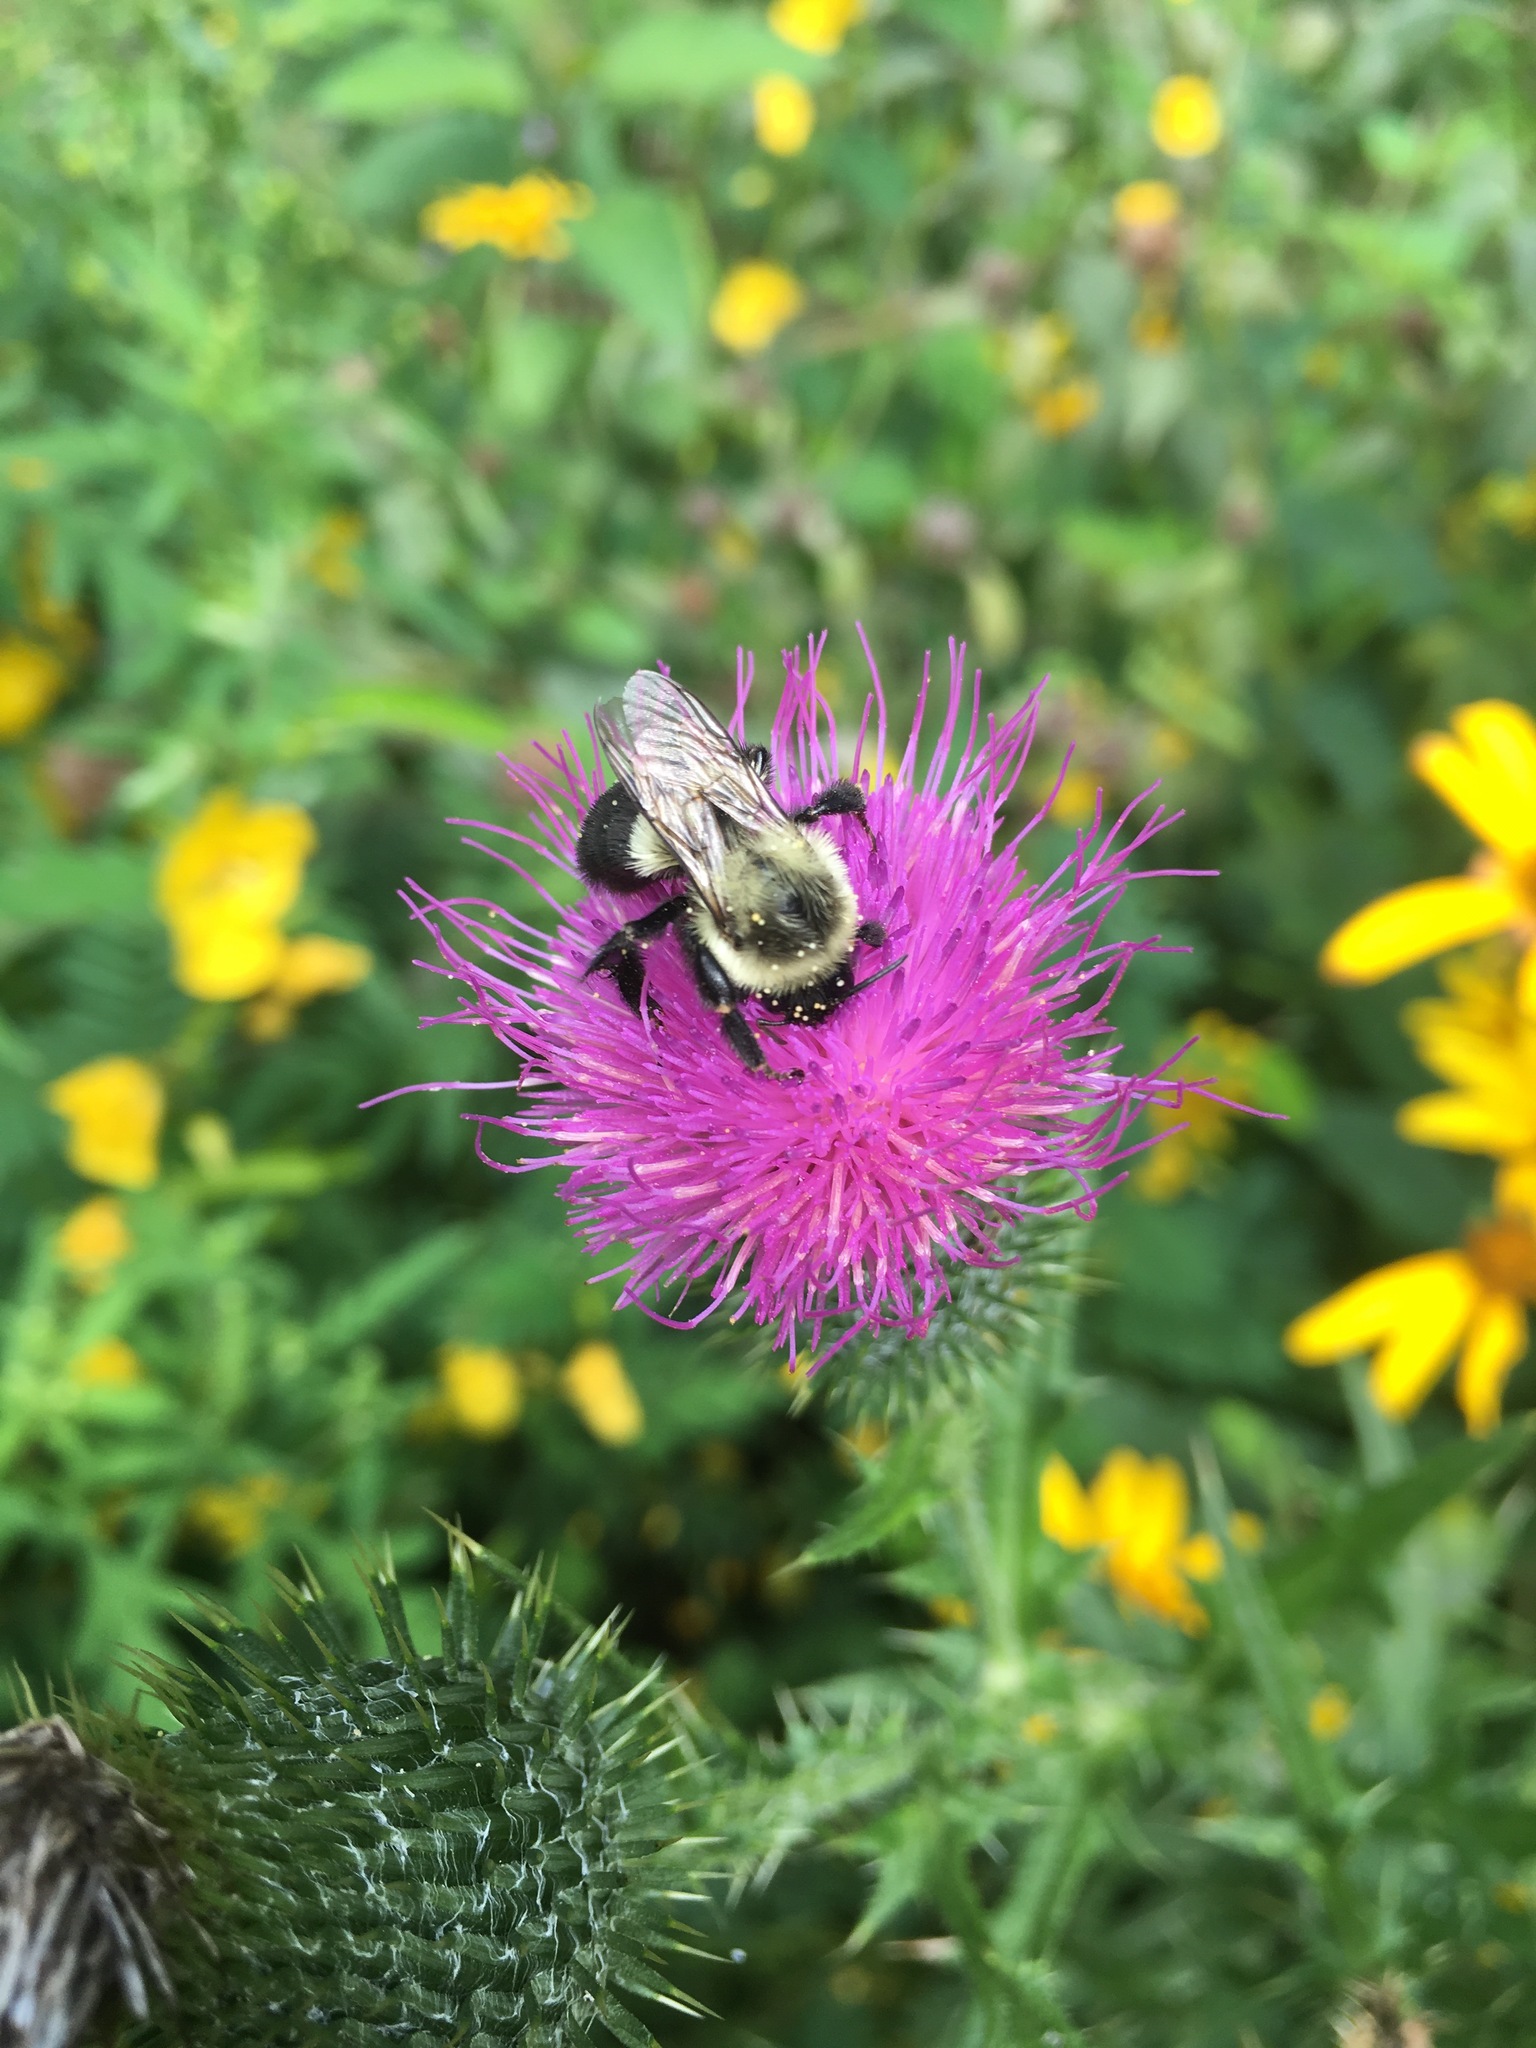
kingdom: Animalia
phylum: Arthropoda
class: Insecta
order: Hymenoptera
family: Apidae
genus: Bombus
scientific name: Bombus impatiens
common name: Common eastern bumble bee
